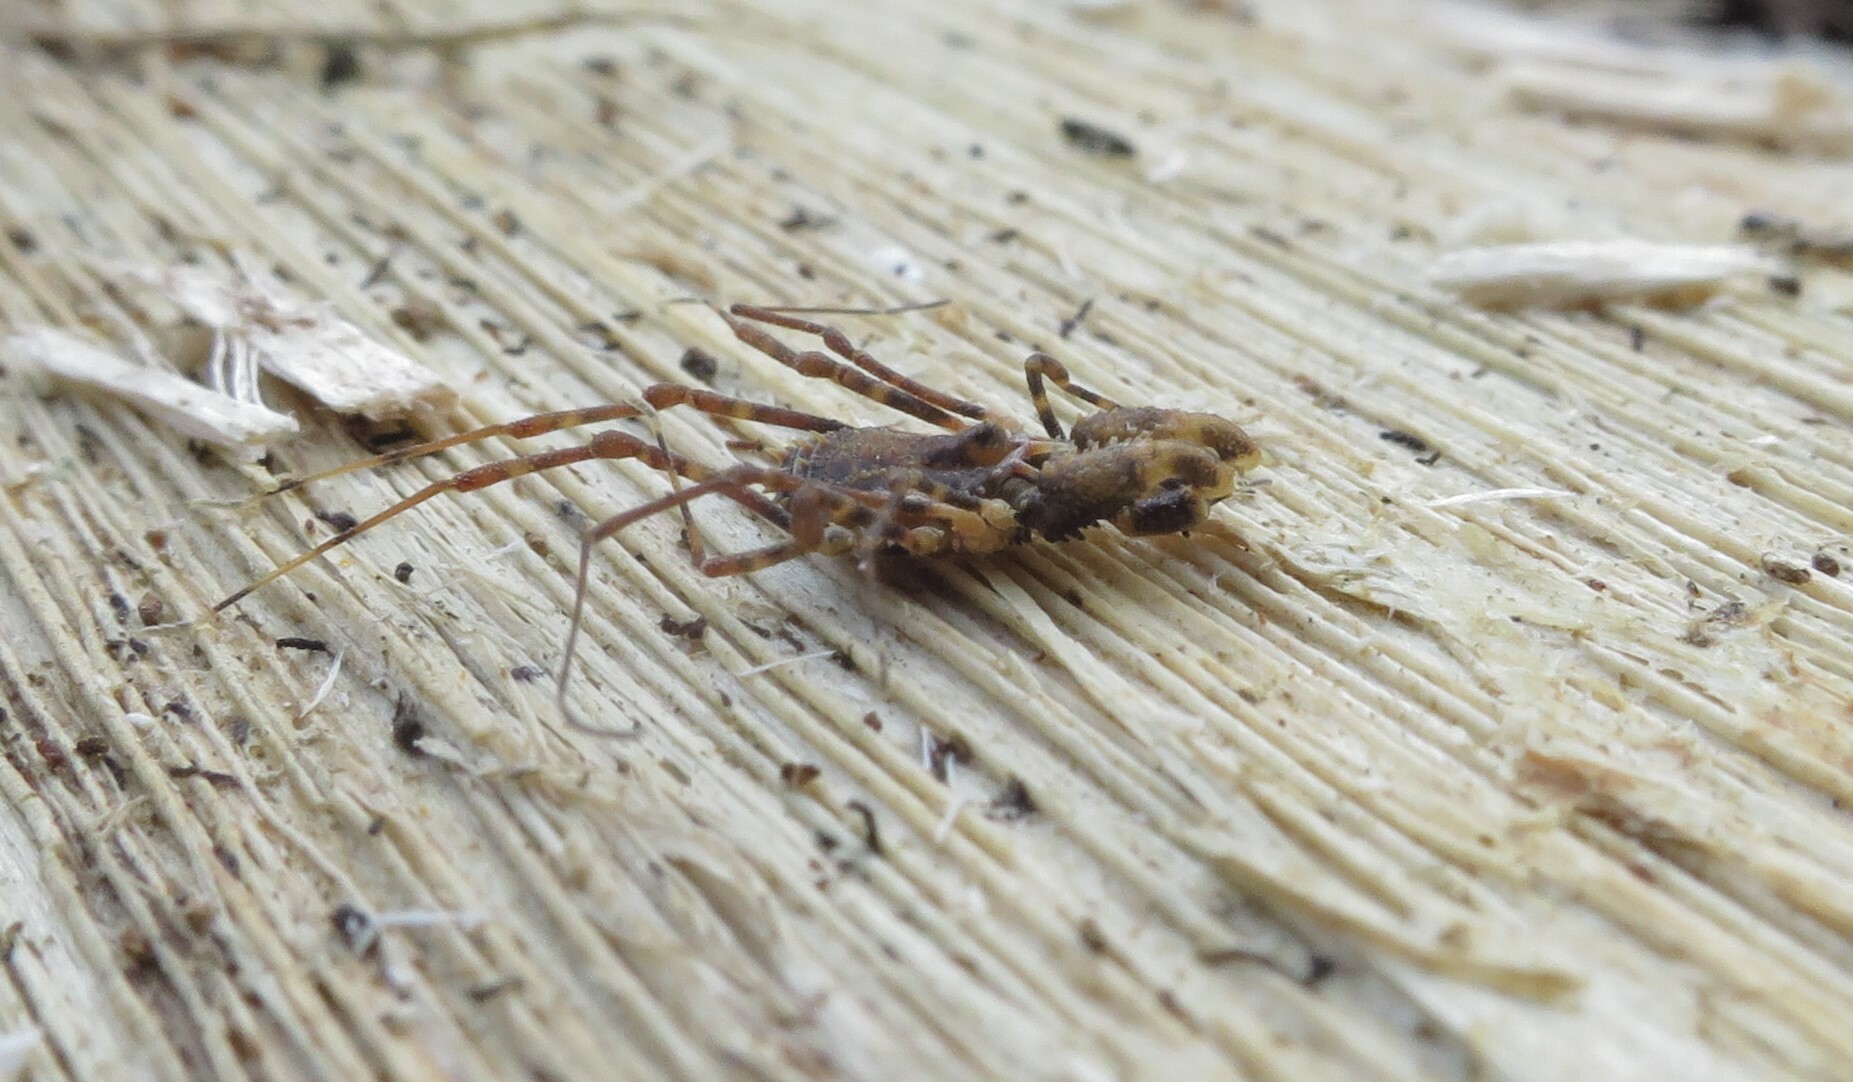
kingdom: Animalia
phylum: Arthropoda
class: Arachnida
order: Opiliones
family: Triaenonychidae
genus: Algidia
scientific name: Algidia chiltoni
